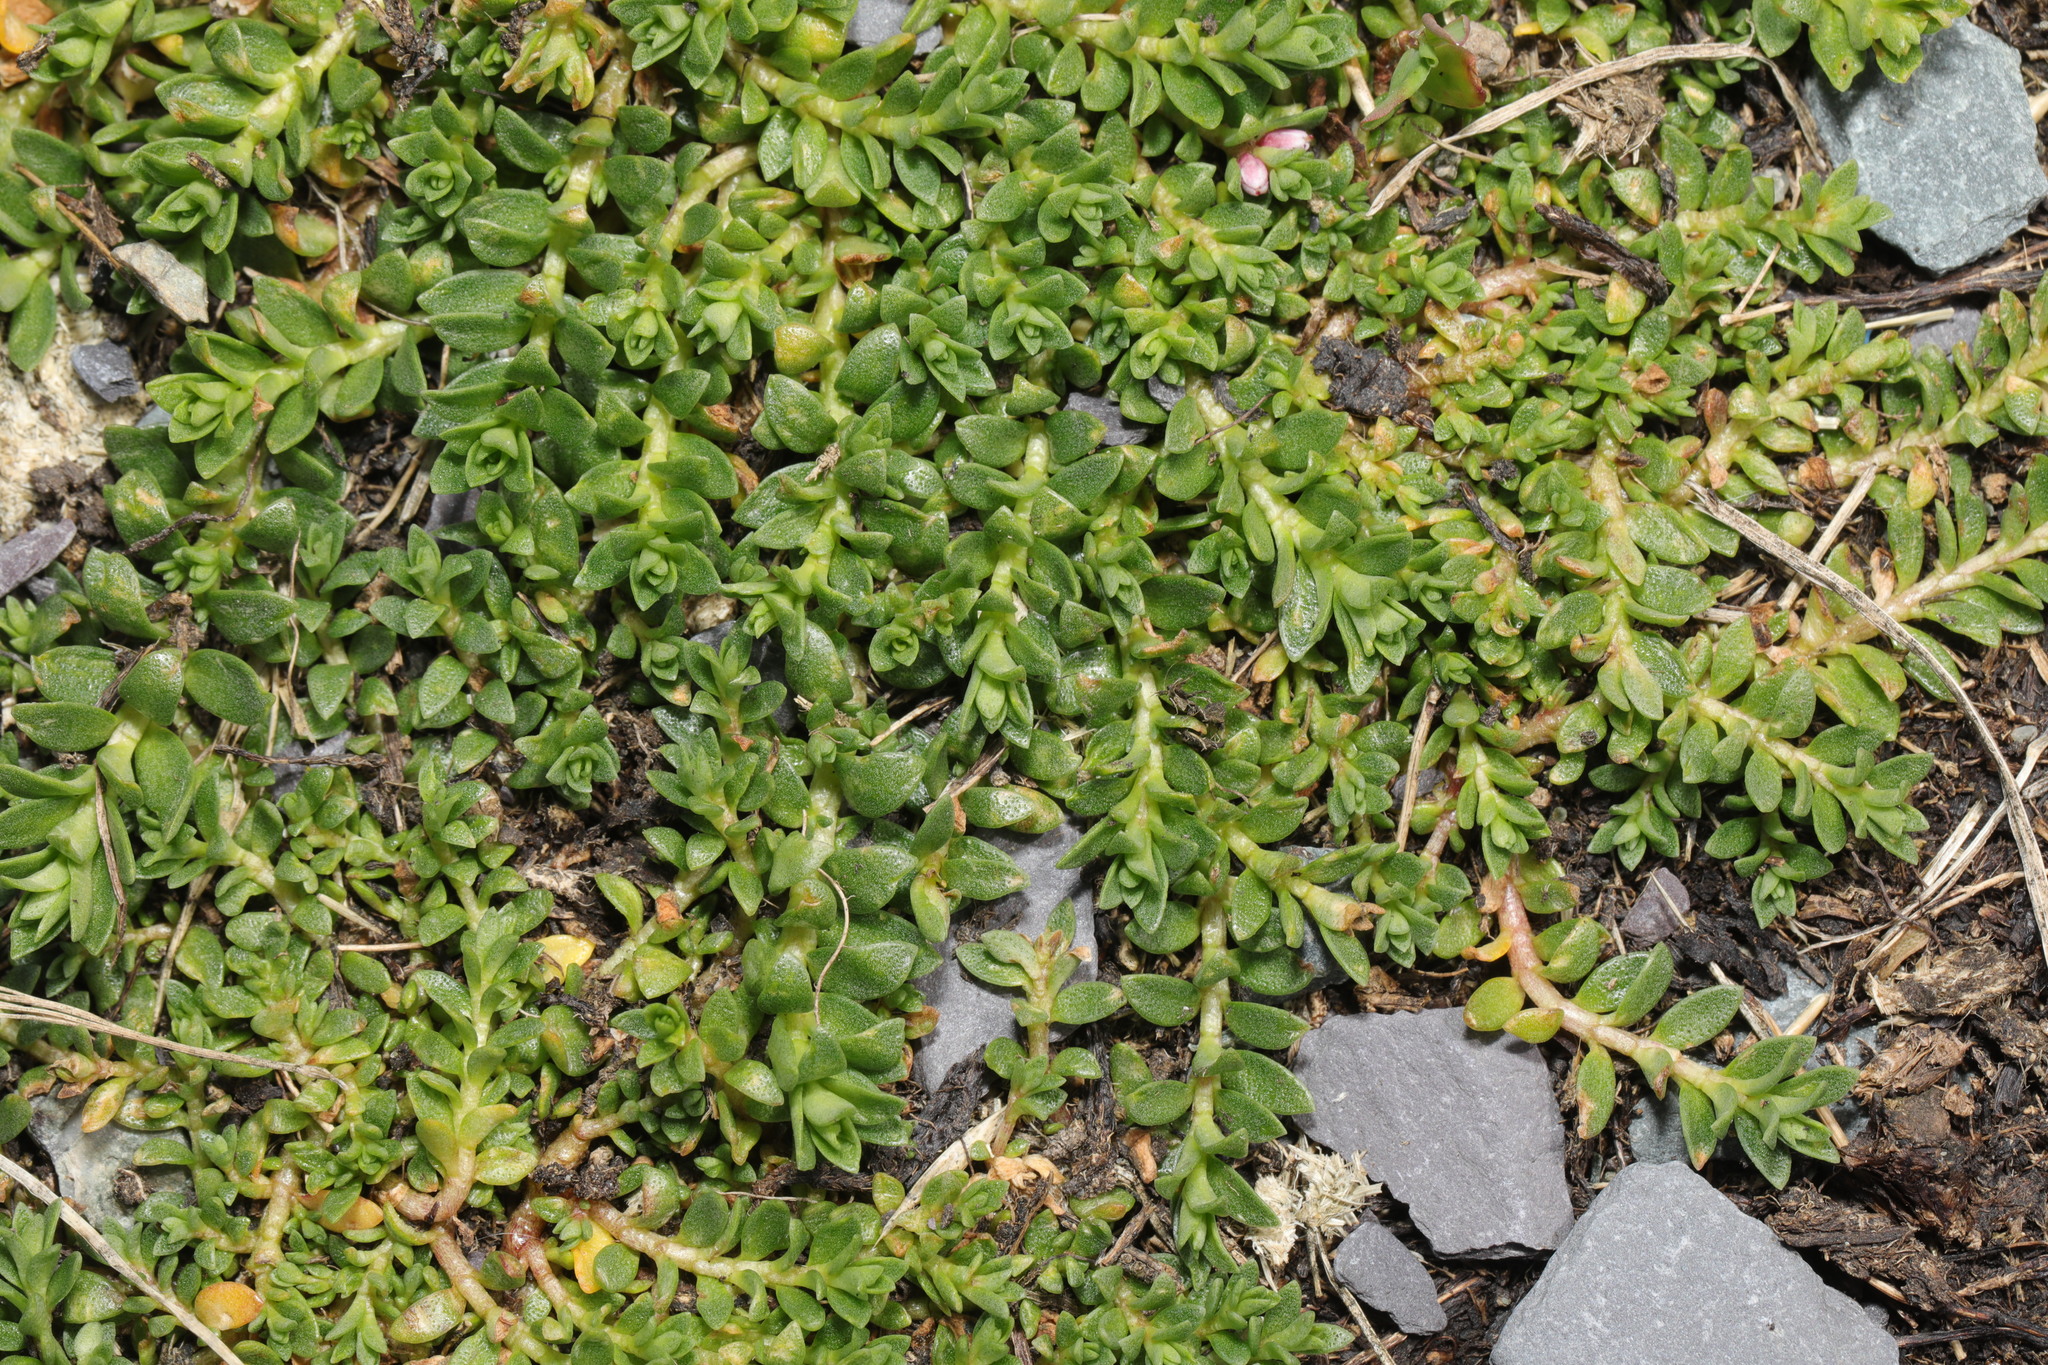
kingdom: Plantae
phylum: Tracheophyta
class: Magnoliopsida
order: Ericales
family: Primulaceae
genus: Lysimachia
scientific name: Lysimachia maritima
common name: Sea milkwort
